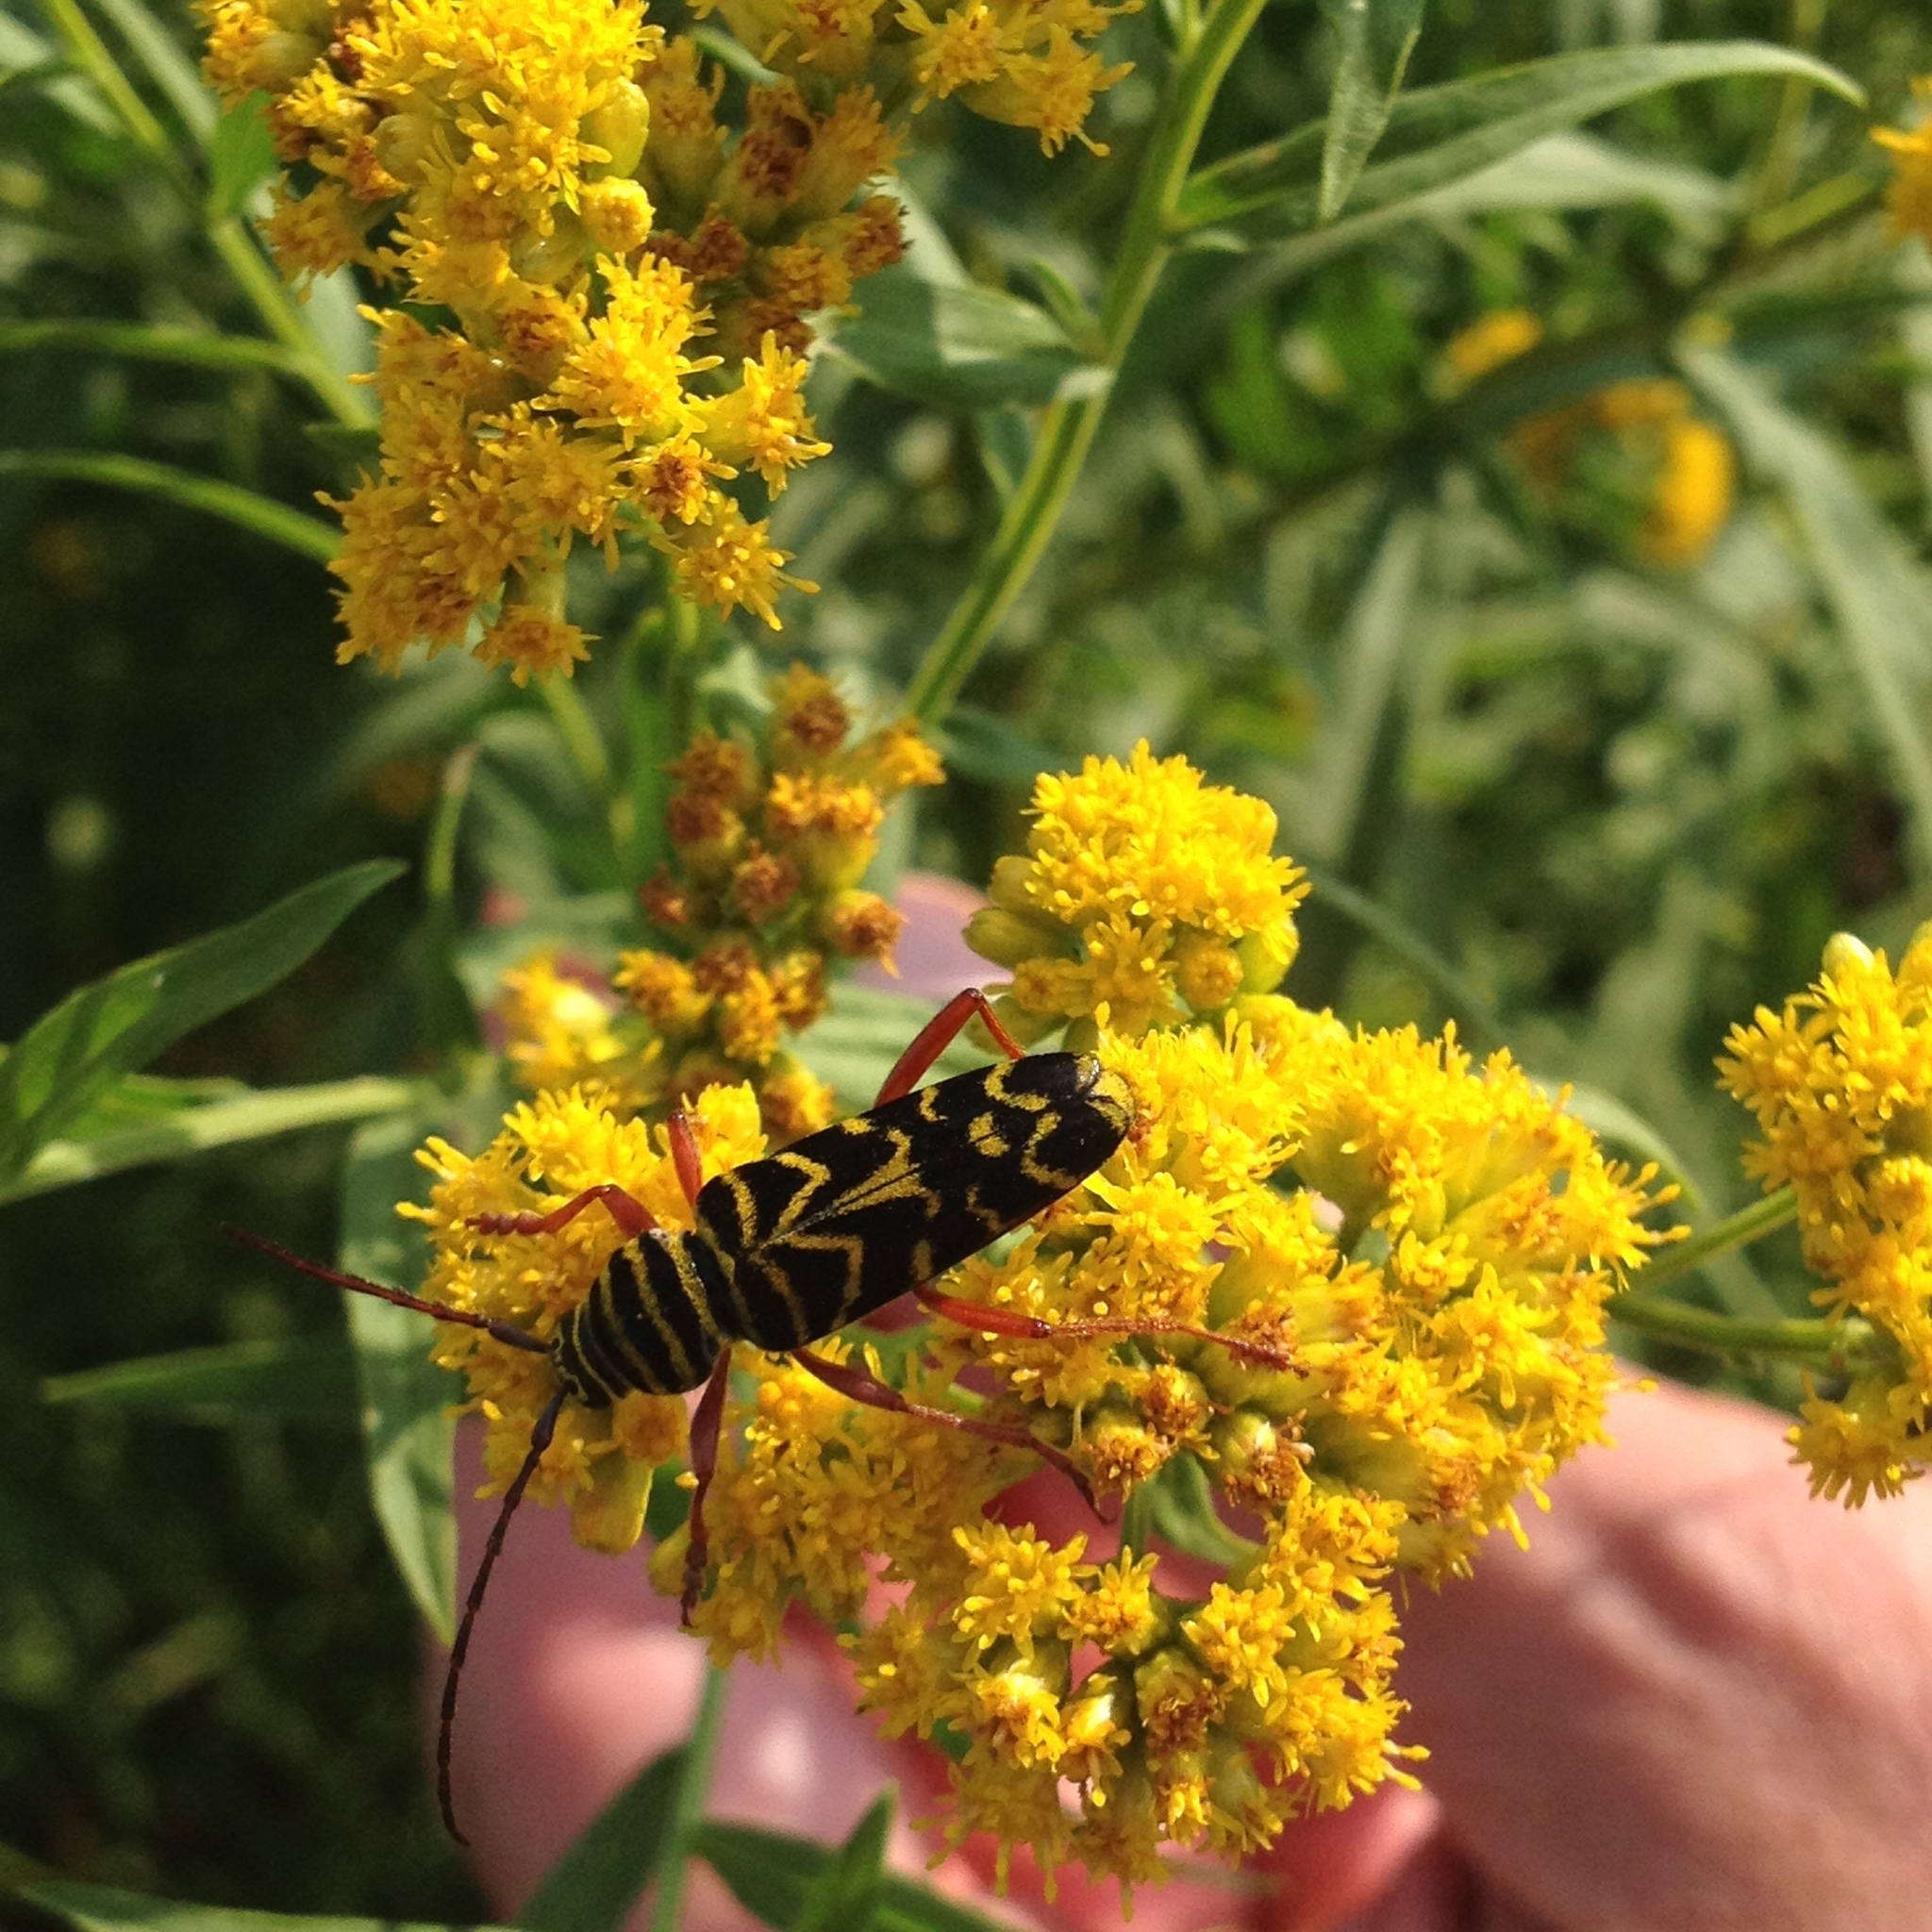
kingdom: Animalia
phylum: Arthropoda
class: Insecta
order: Coleoptera
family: Cerambycidae
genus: Megacyllene
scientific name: Megacyllene robiniae
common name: Locust borer
